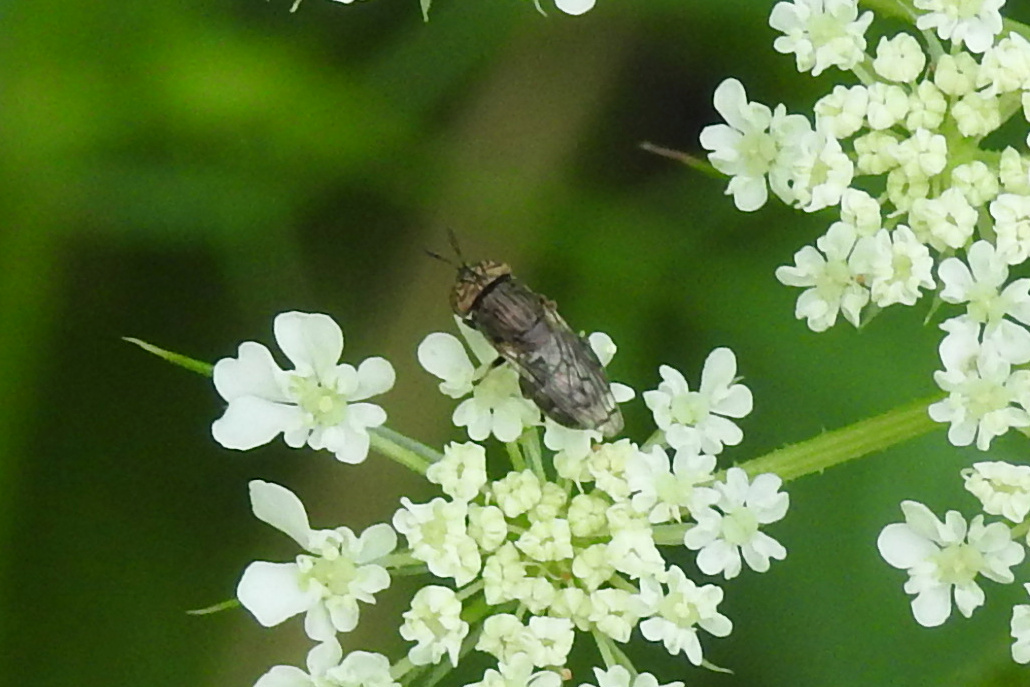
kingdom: Animalia
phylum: Arthropoda
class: Insecta
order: Diptera
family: Syrphidae
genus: Orthonevra
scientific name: Orthonevra nitida
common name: Wavy mucksucker
